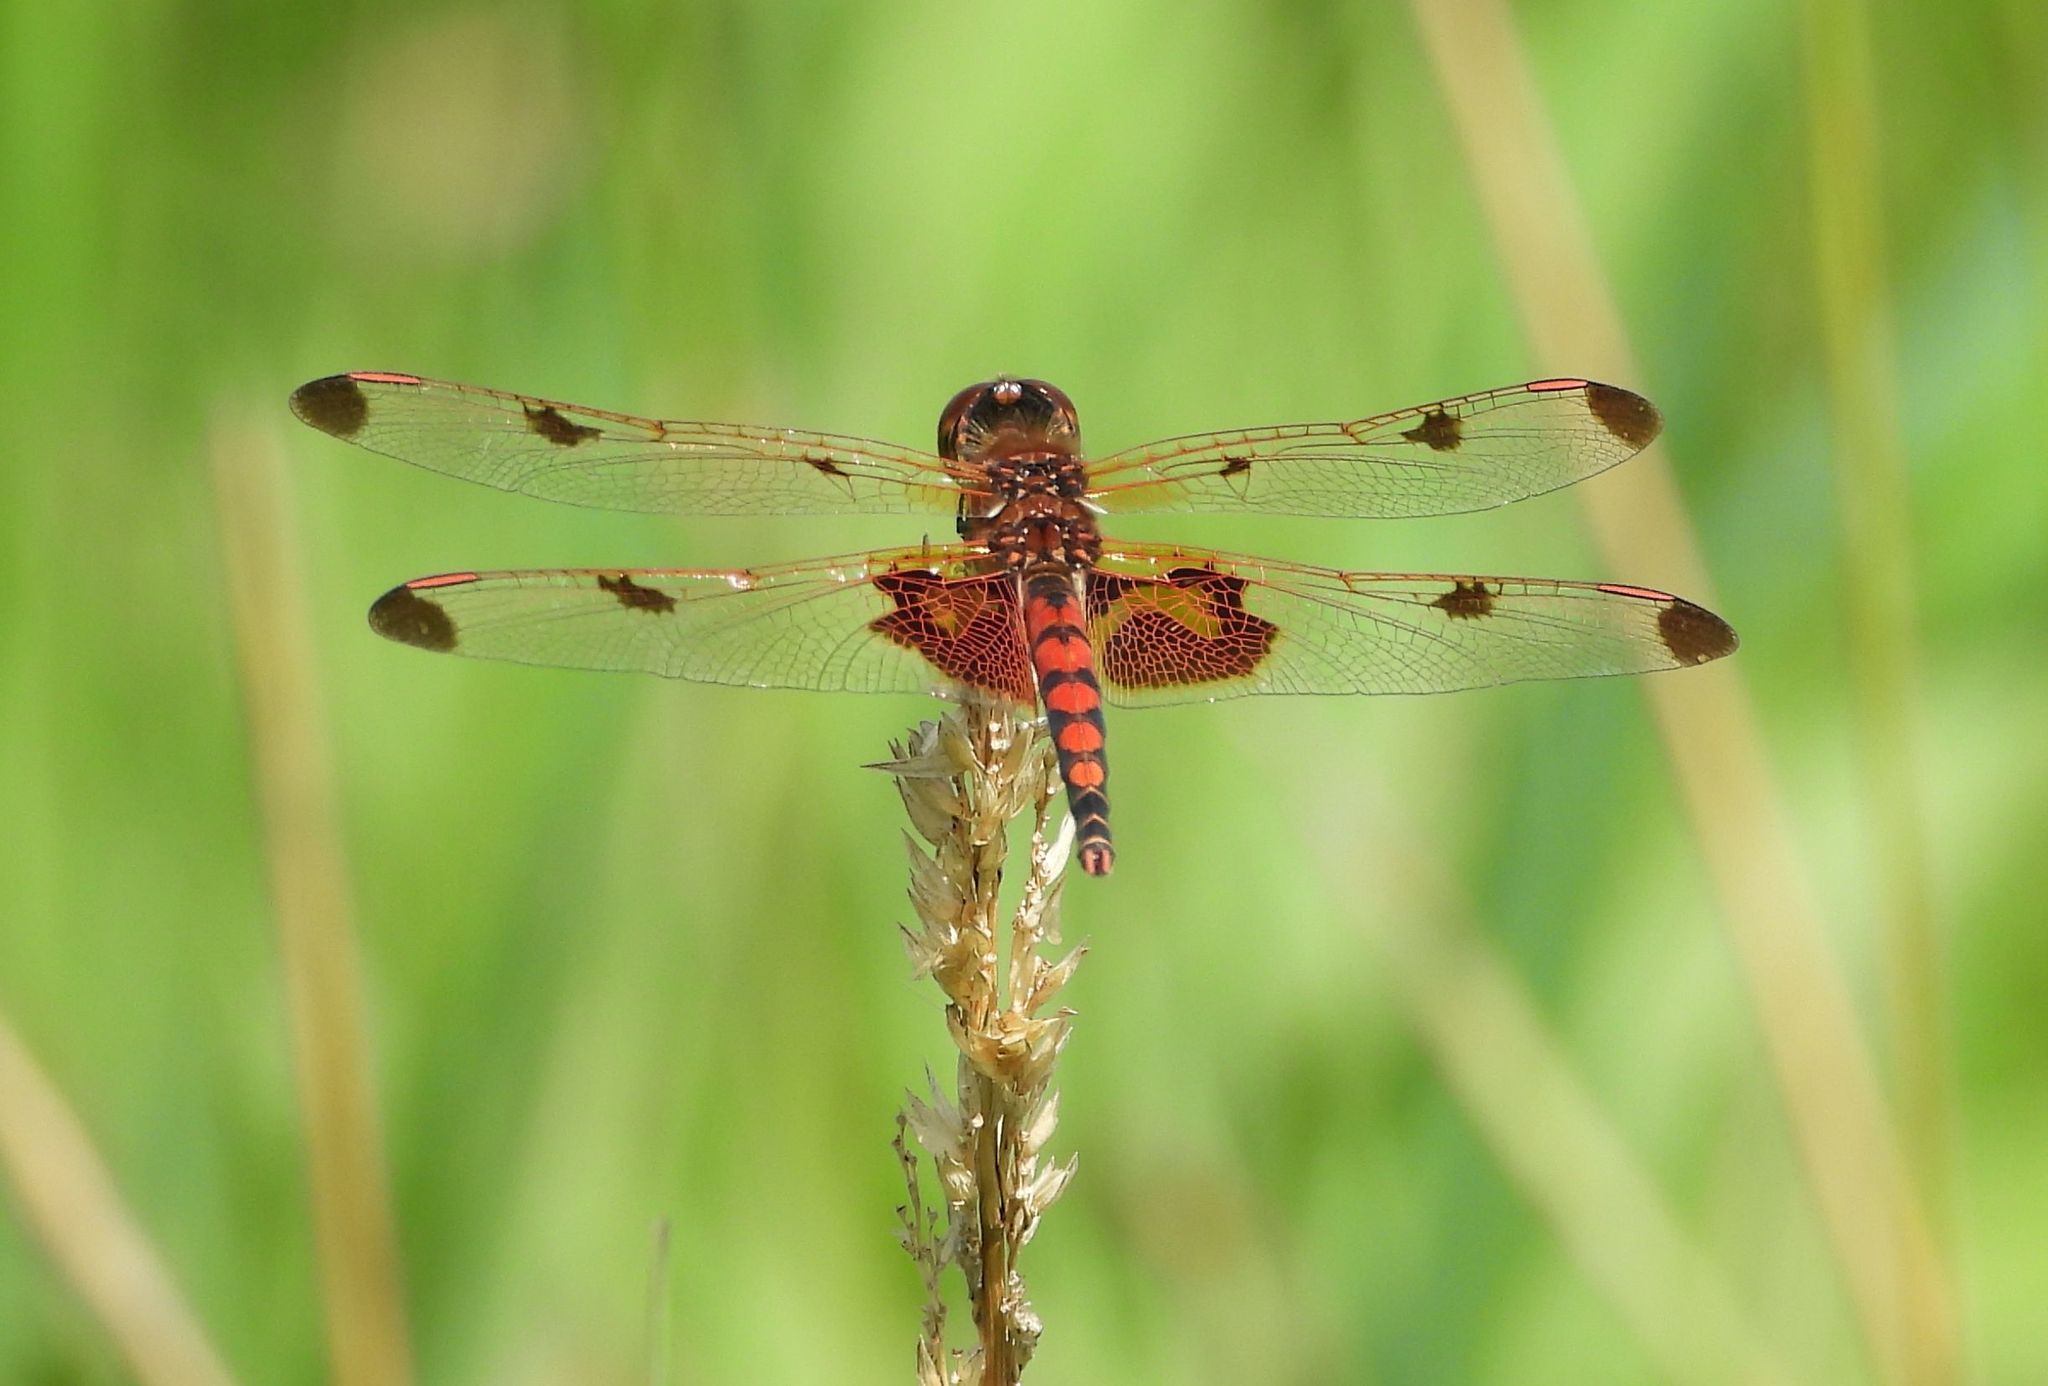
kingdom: Animalia
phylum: Arthropoda
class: Insecta
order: Odonata
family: Libellulidae
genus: Celithemis
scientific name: Celithemis elisa
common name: Calico pennant
